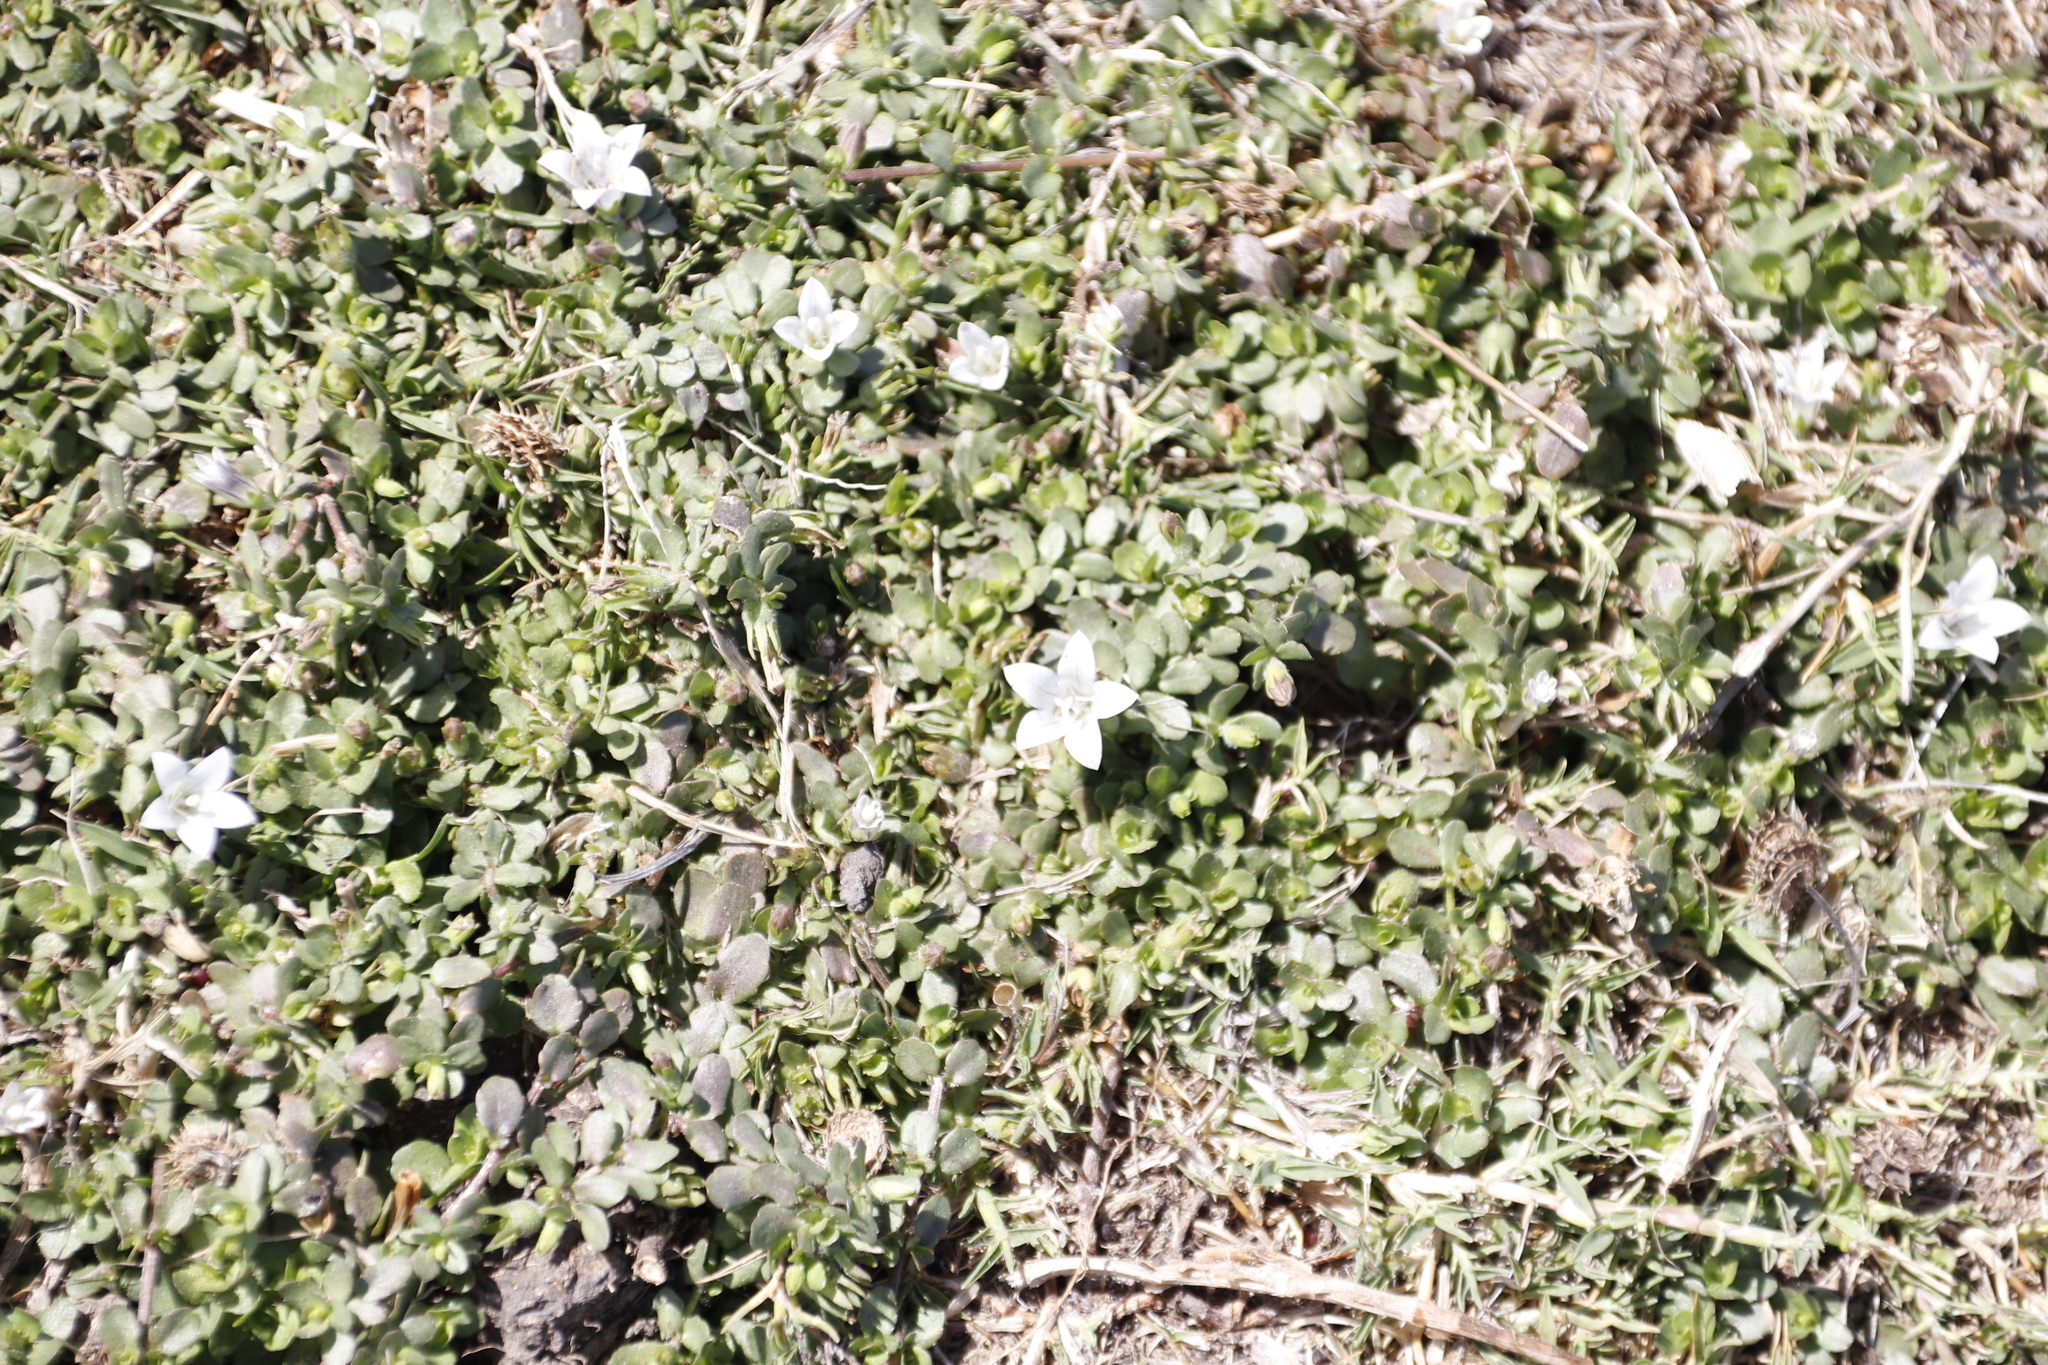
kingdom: Plantae
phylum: Tracheophyta
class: Magnoliopsida
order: Asterales
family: Campanulaceae
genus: Wahlenbergia
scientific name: Wahlenbergia procumbens
